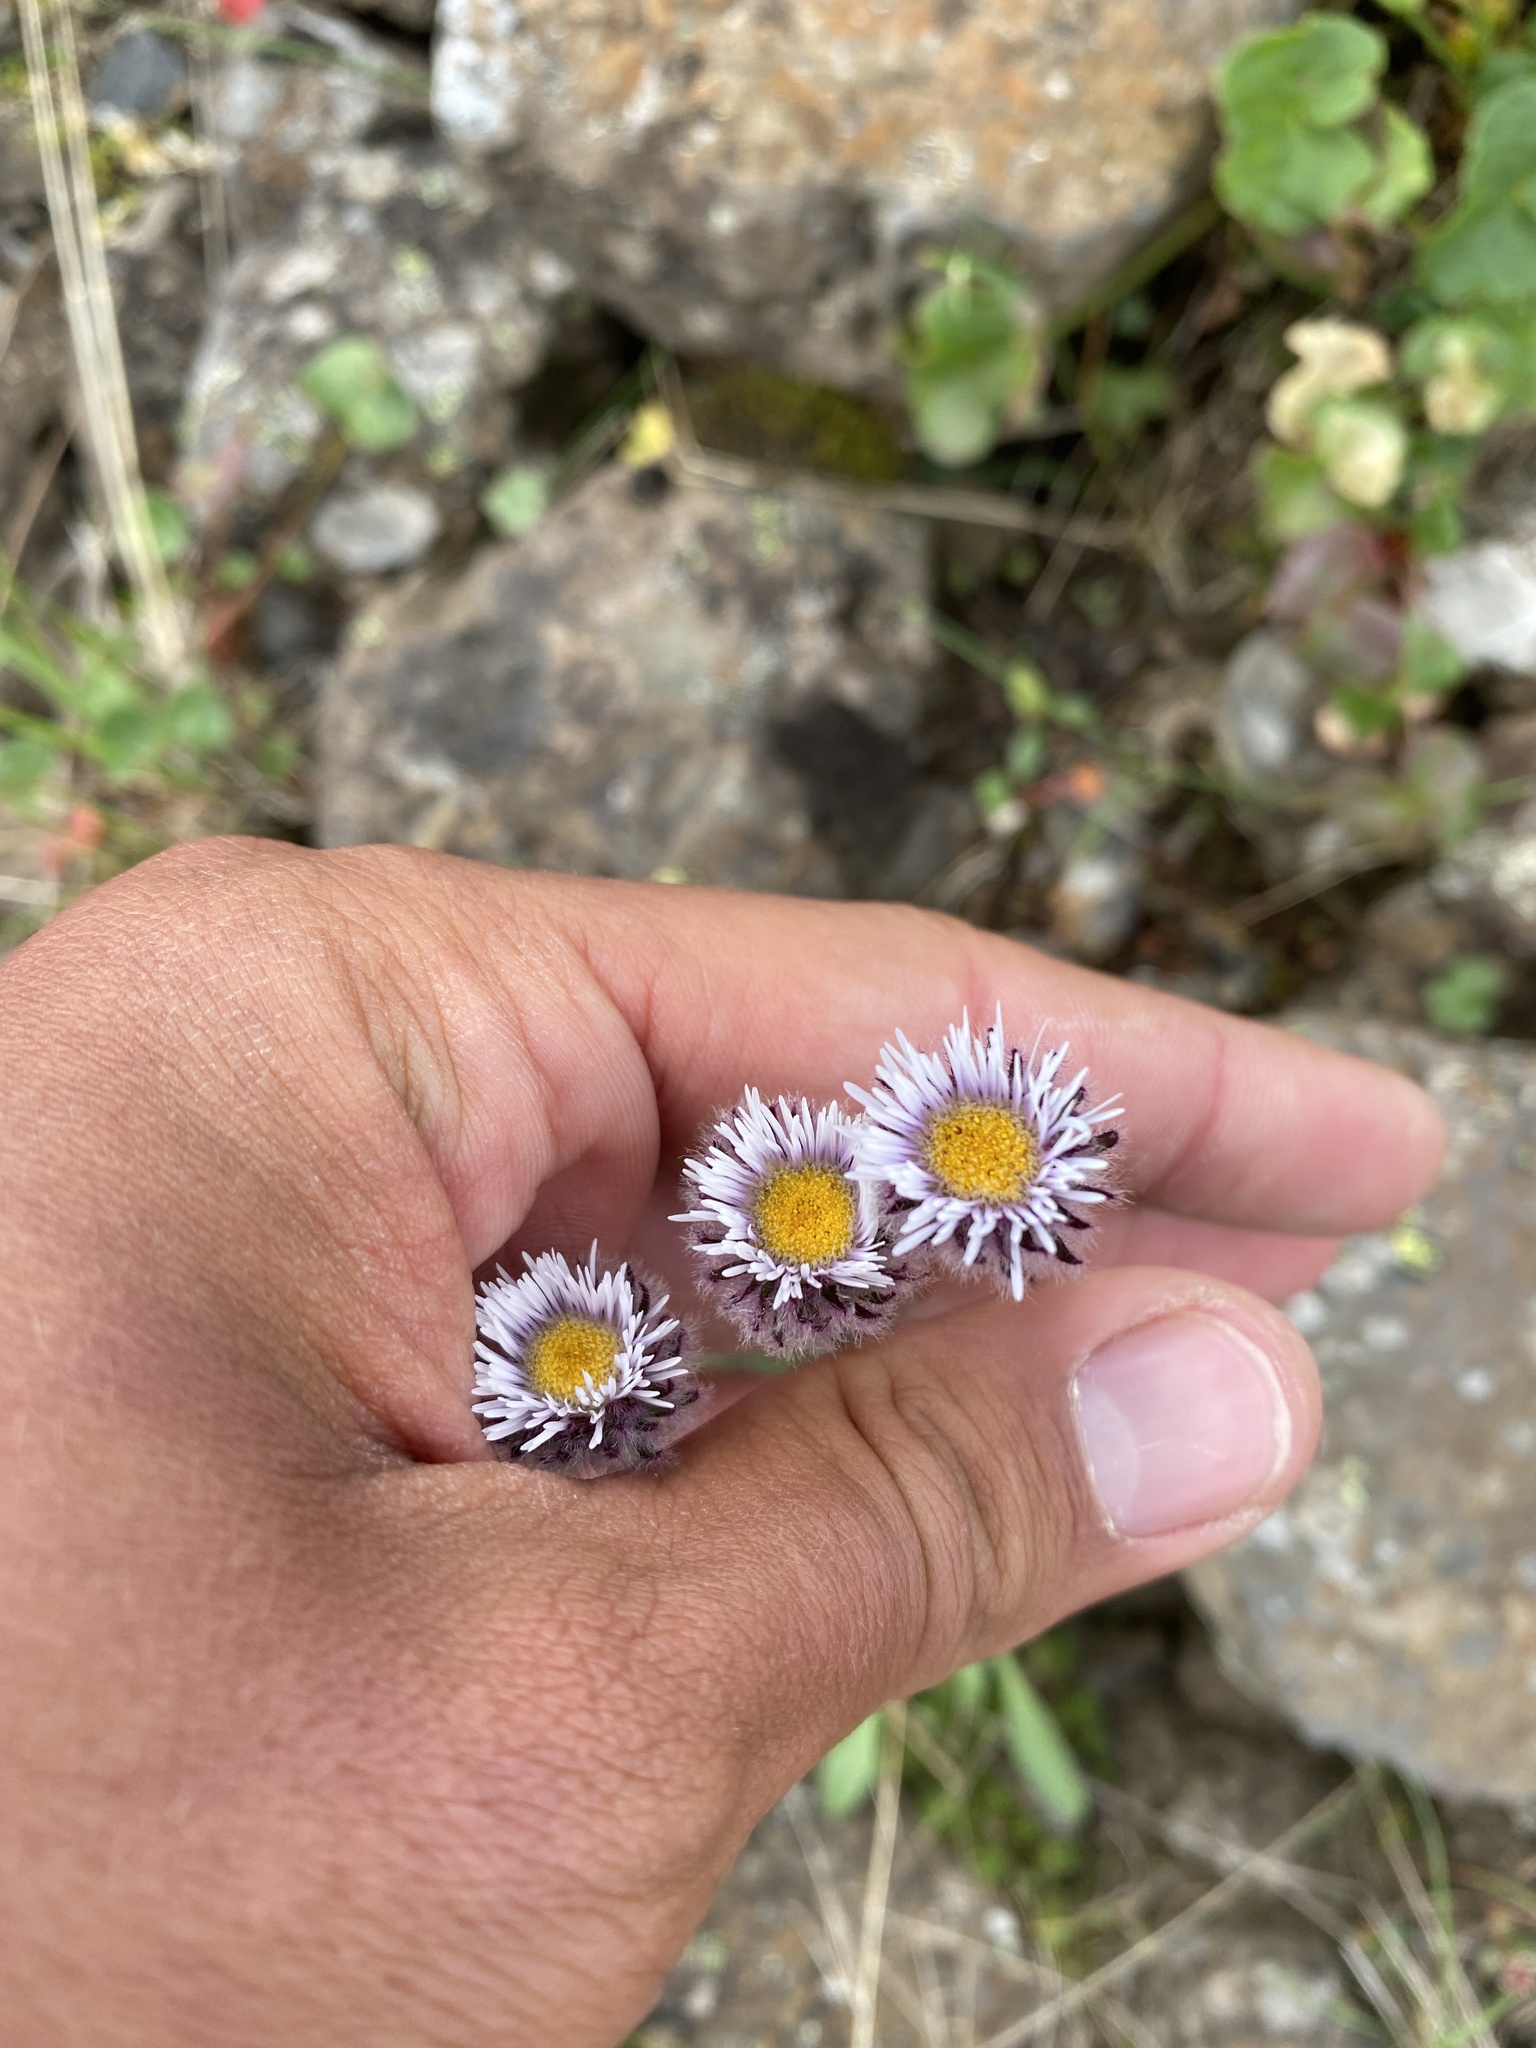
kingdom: Plantae
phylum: Tracheophyta
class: Magnoliopsida
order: Asterales
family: Asteraceae
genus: Erigeron
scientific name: Erigeron eriocalyx
